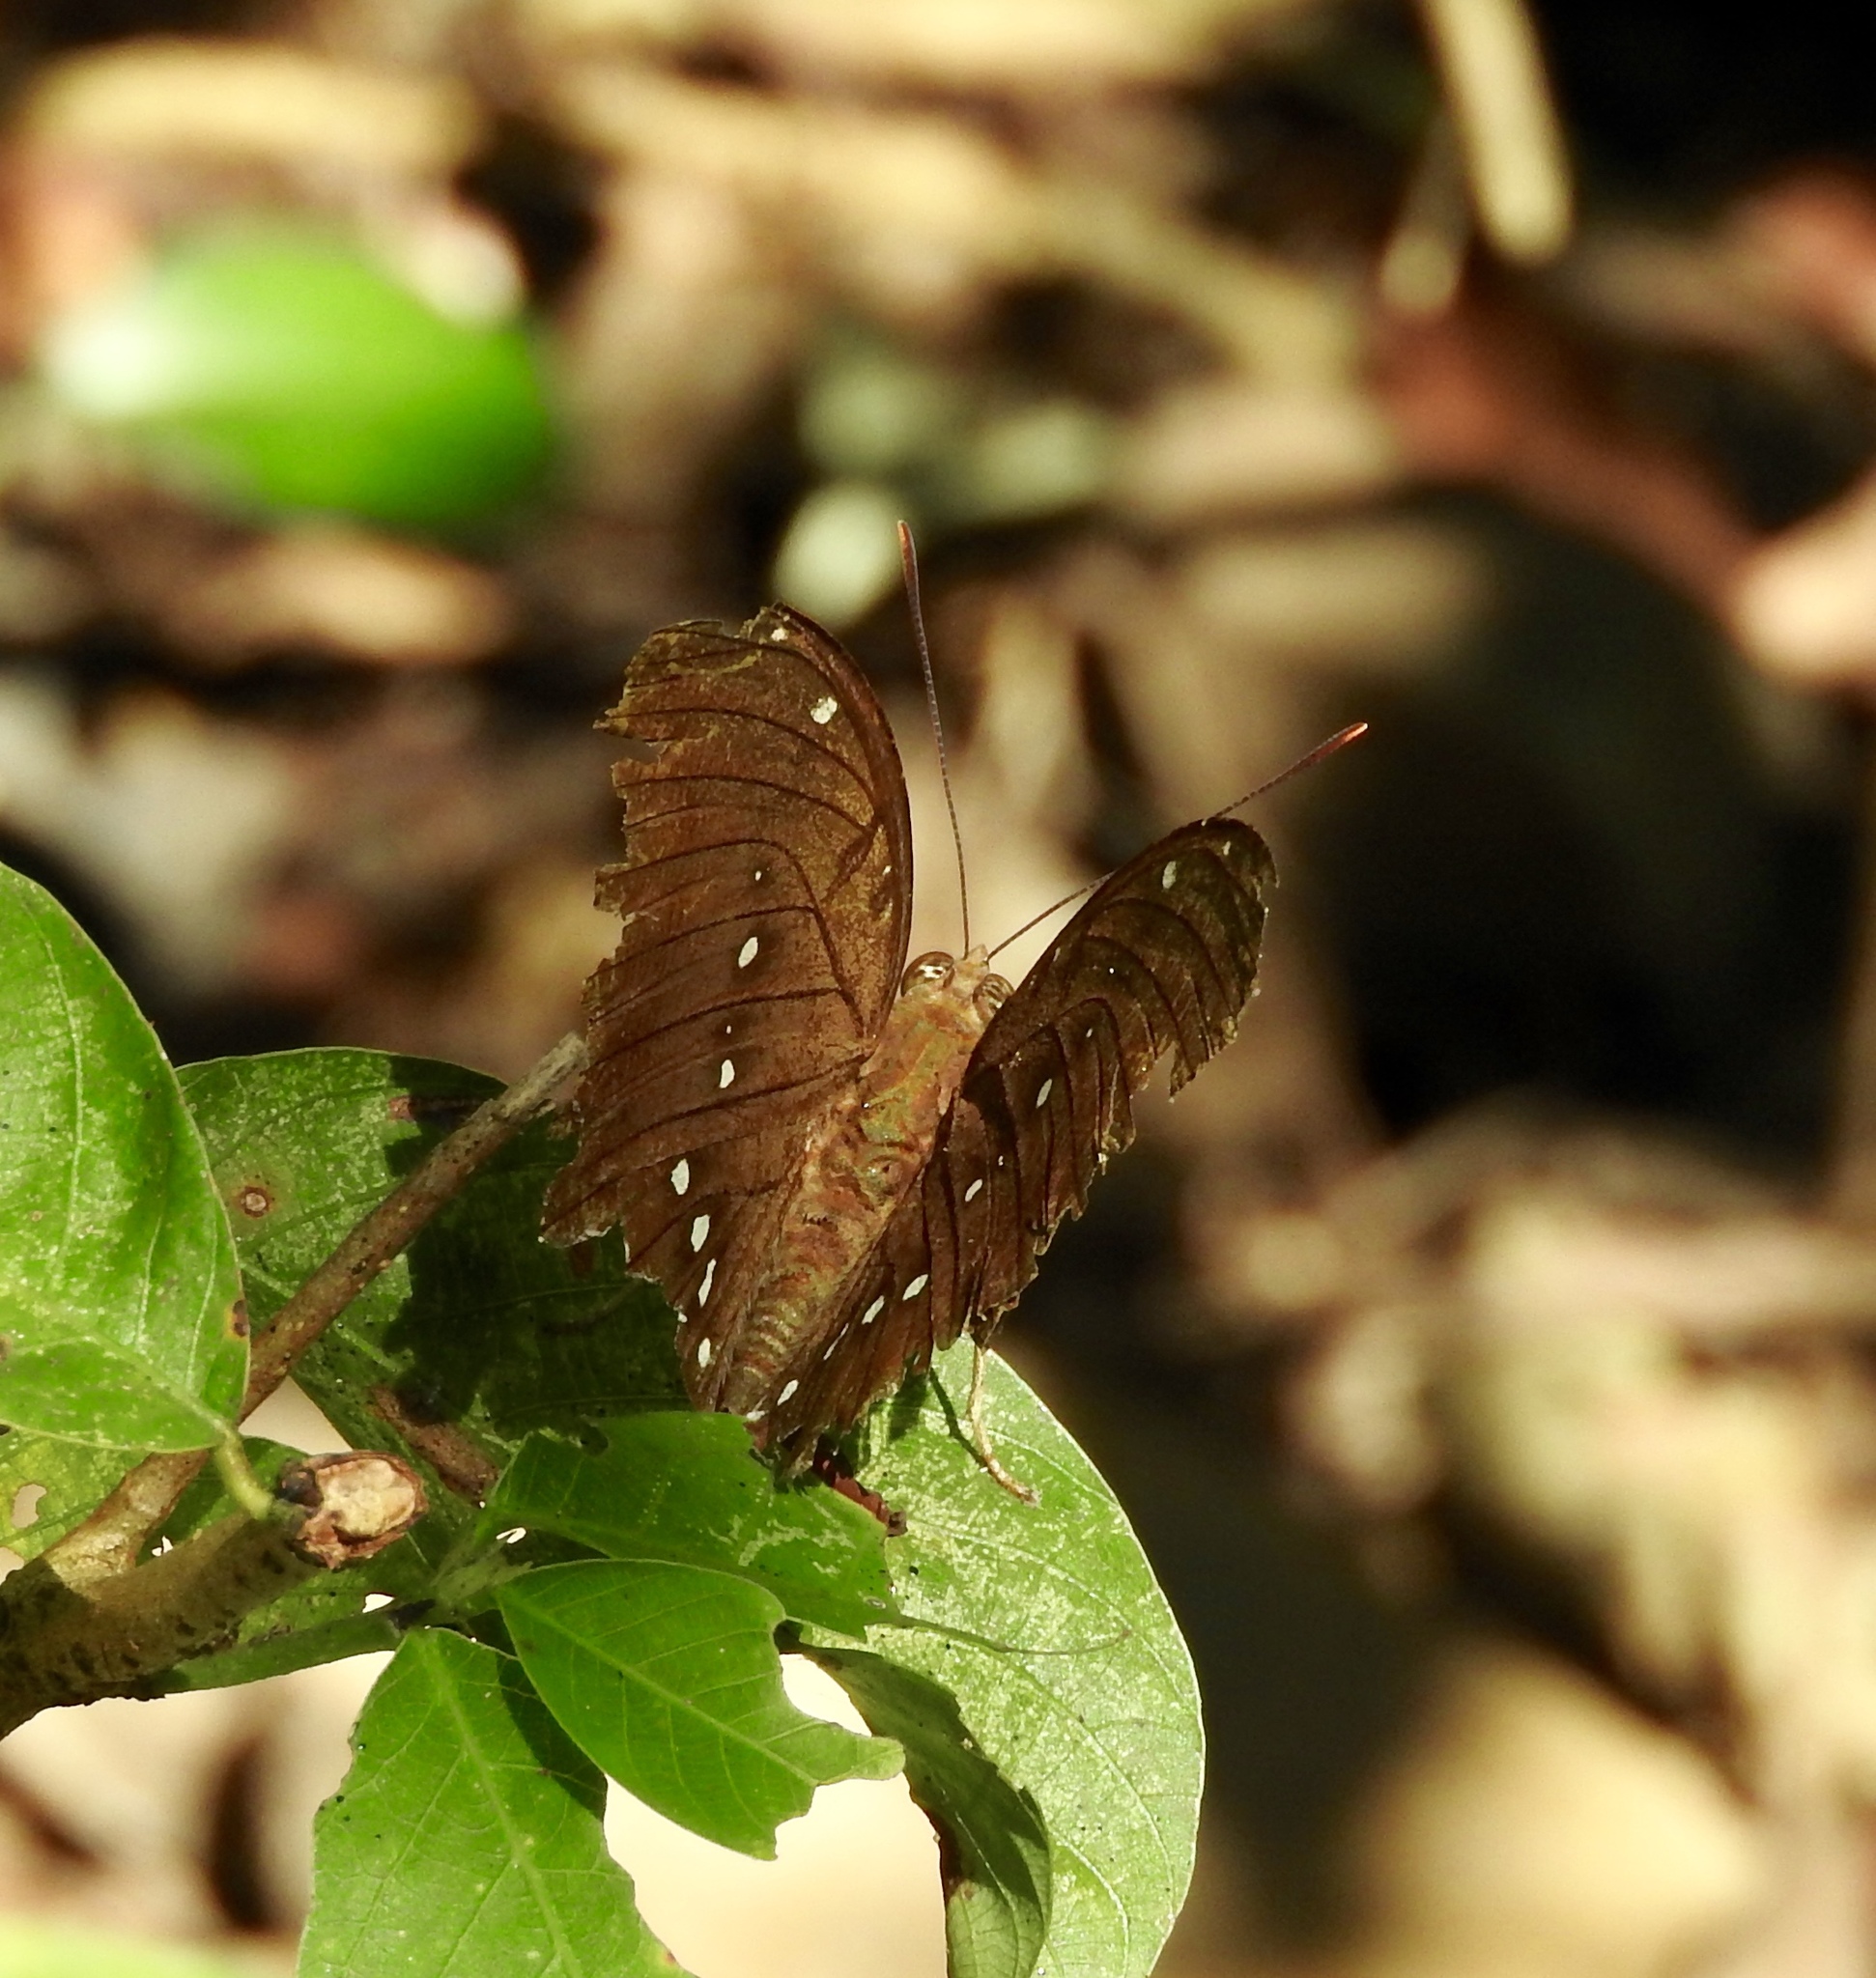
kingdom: Animalia
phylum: Arthropoda
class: Insecta
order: Lepidoptera
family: Nymphalidae
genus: Euthalia
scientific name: Euthalia Bassarona dunya
